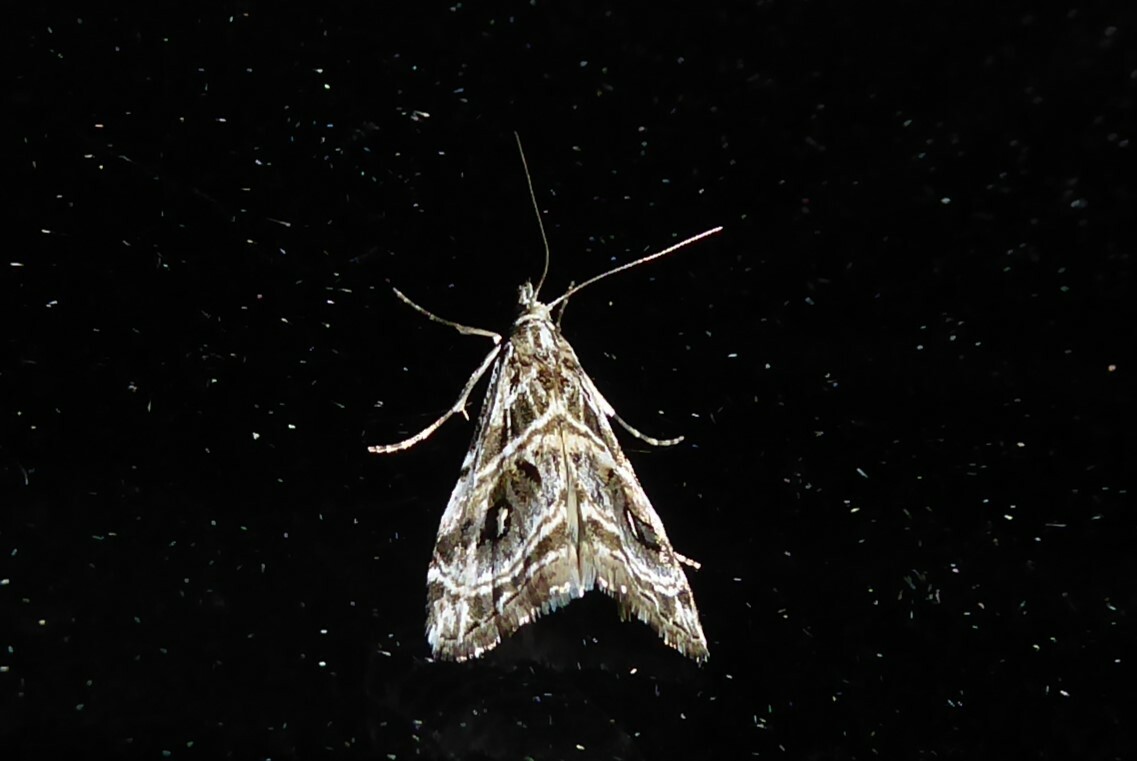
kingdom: Animalia
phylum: Arthropoda
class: Insecta
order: Lepidoptera
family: Crambidae
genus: Gadira
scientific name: Gadira acerella
